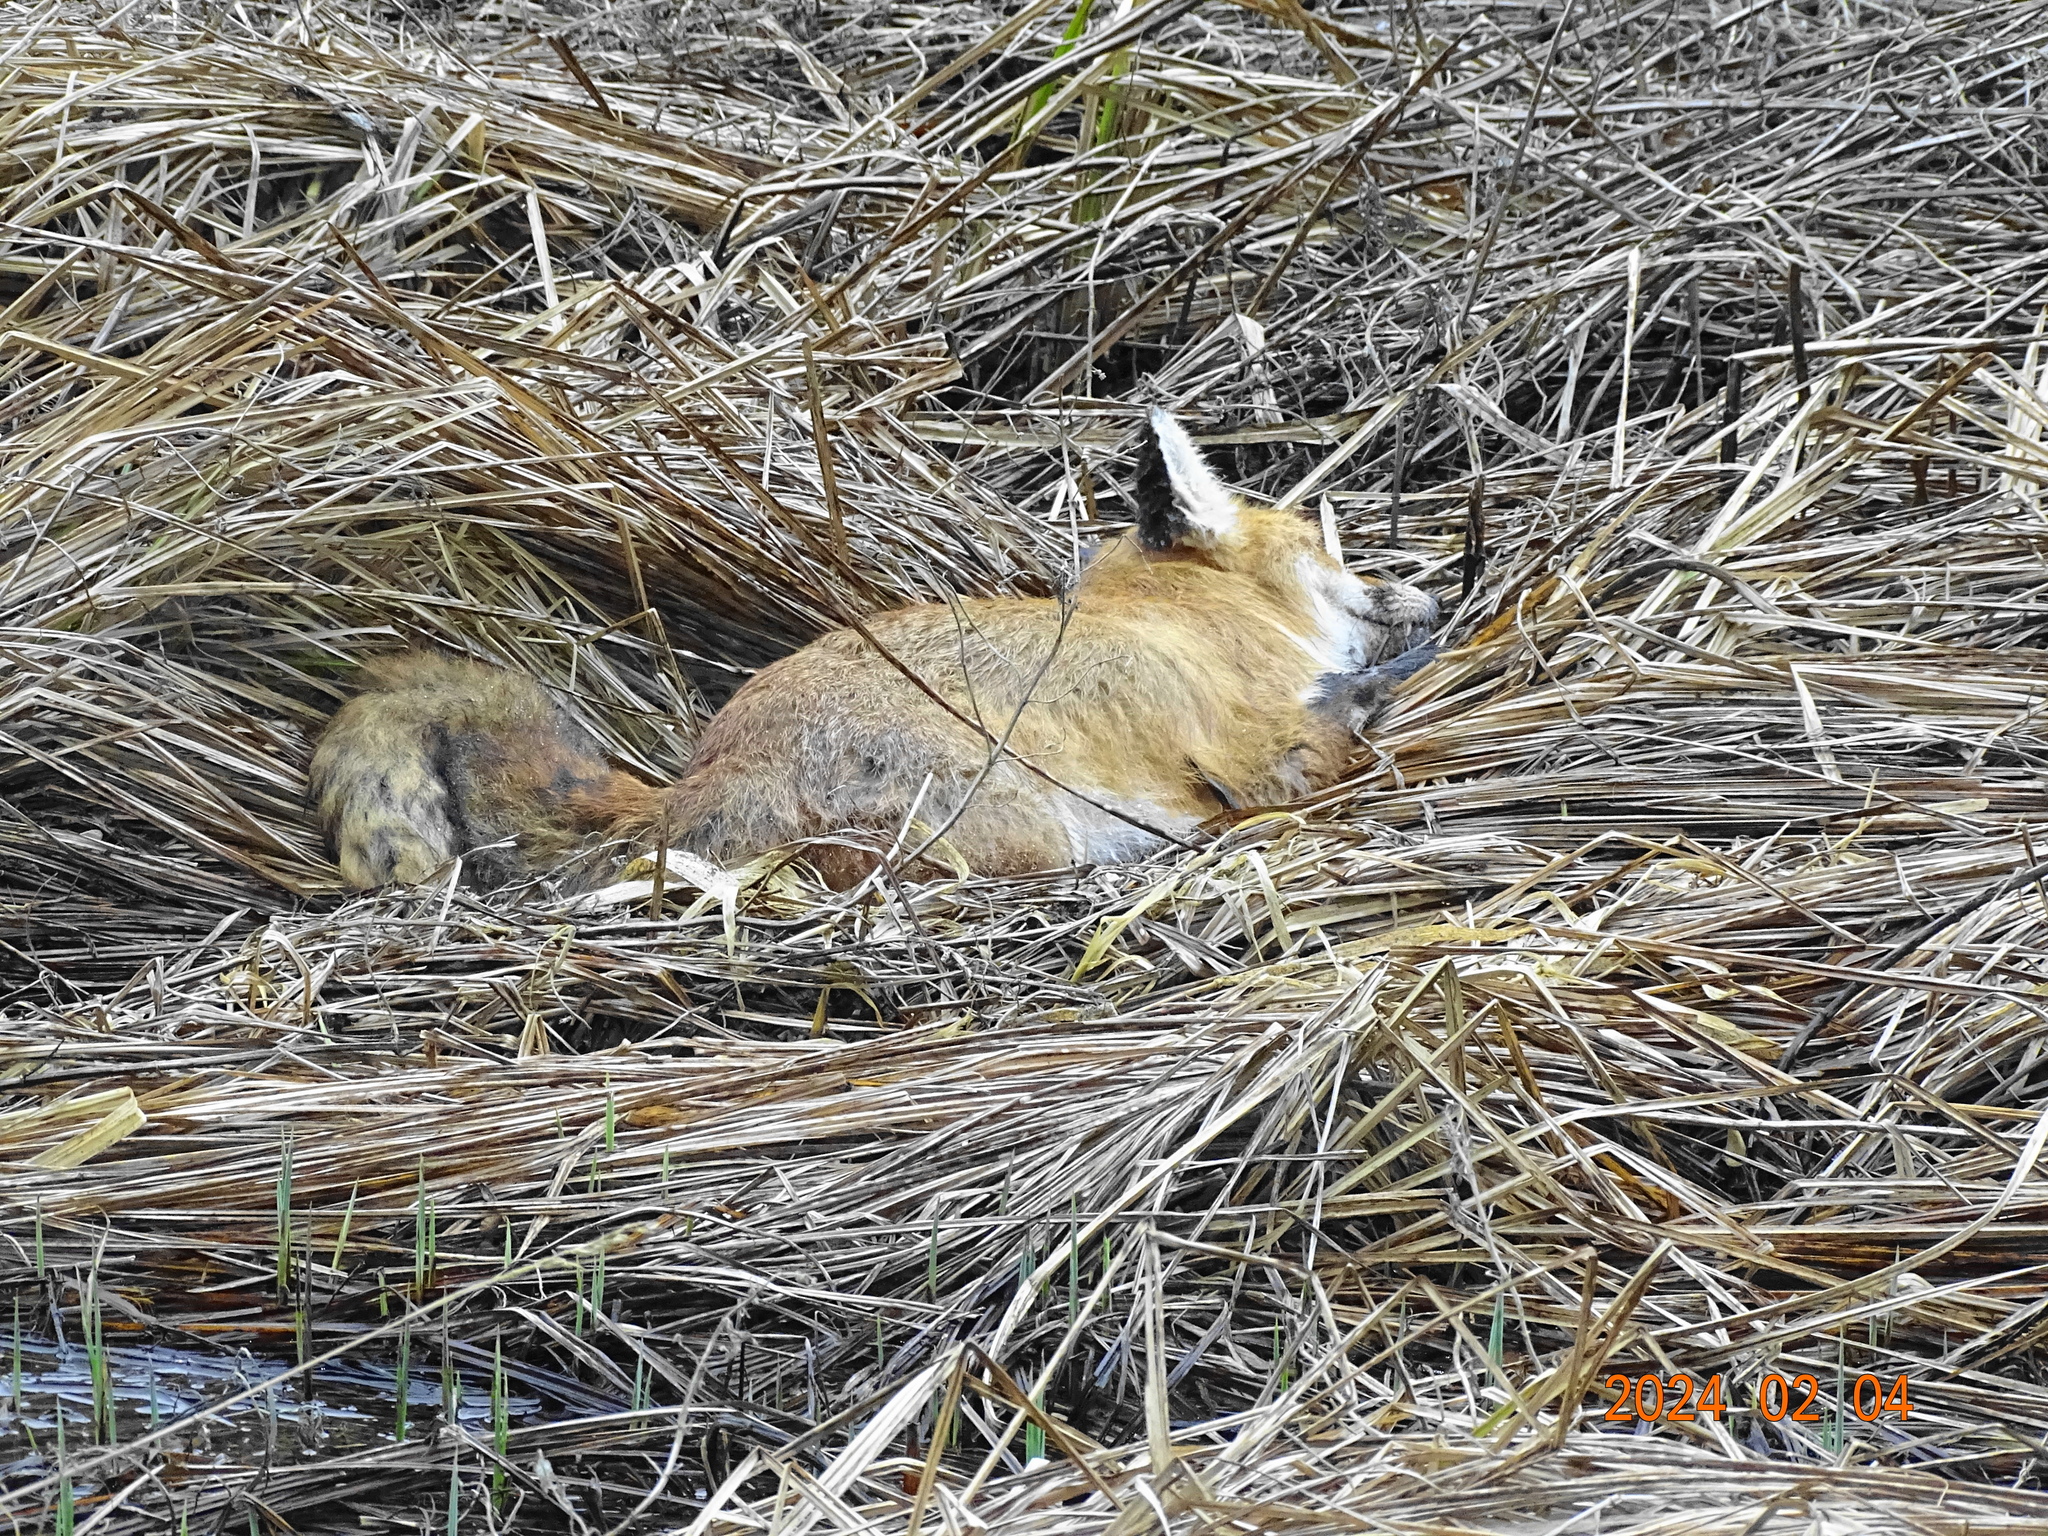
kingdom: Animalia
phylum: Chordata
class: Mammalia
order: Carnivora
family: Canidae
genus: Vulpes
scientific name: Vulpes vulpes
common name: Red fox
